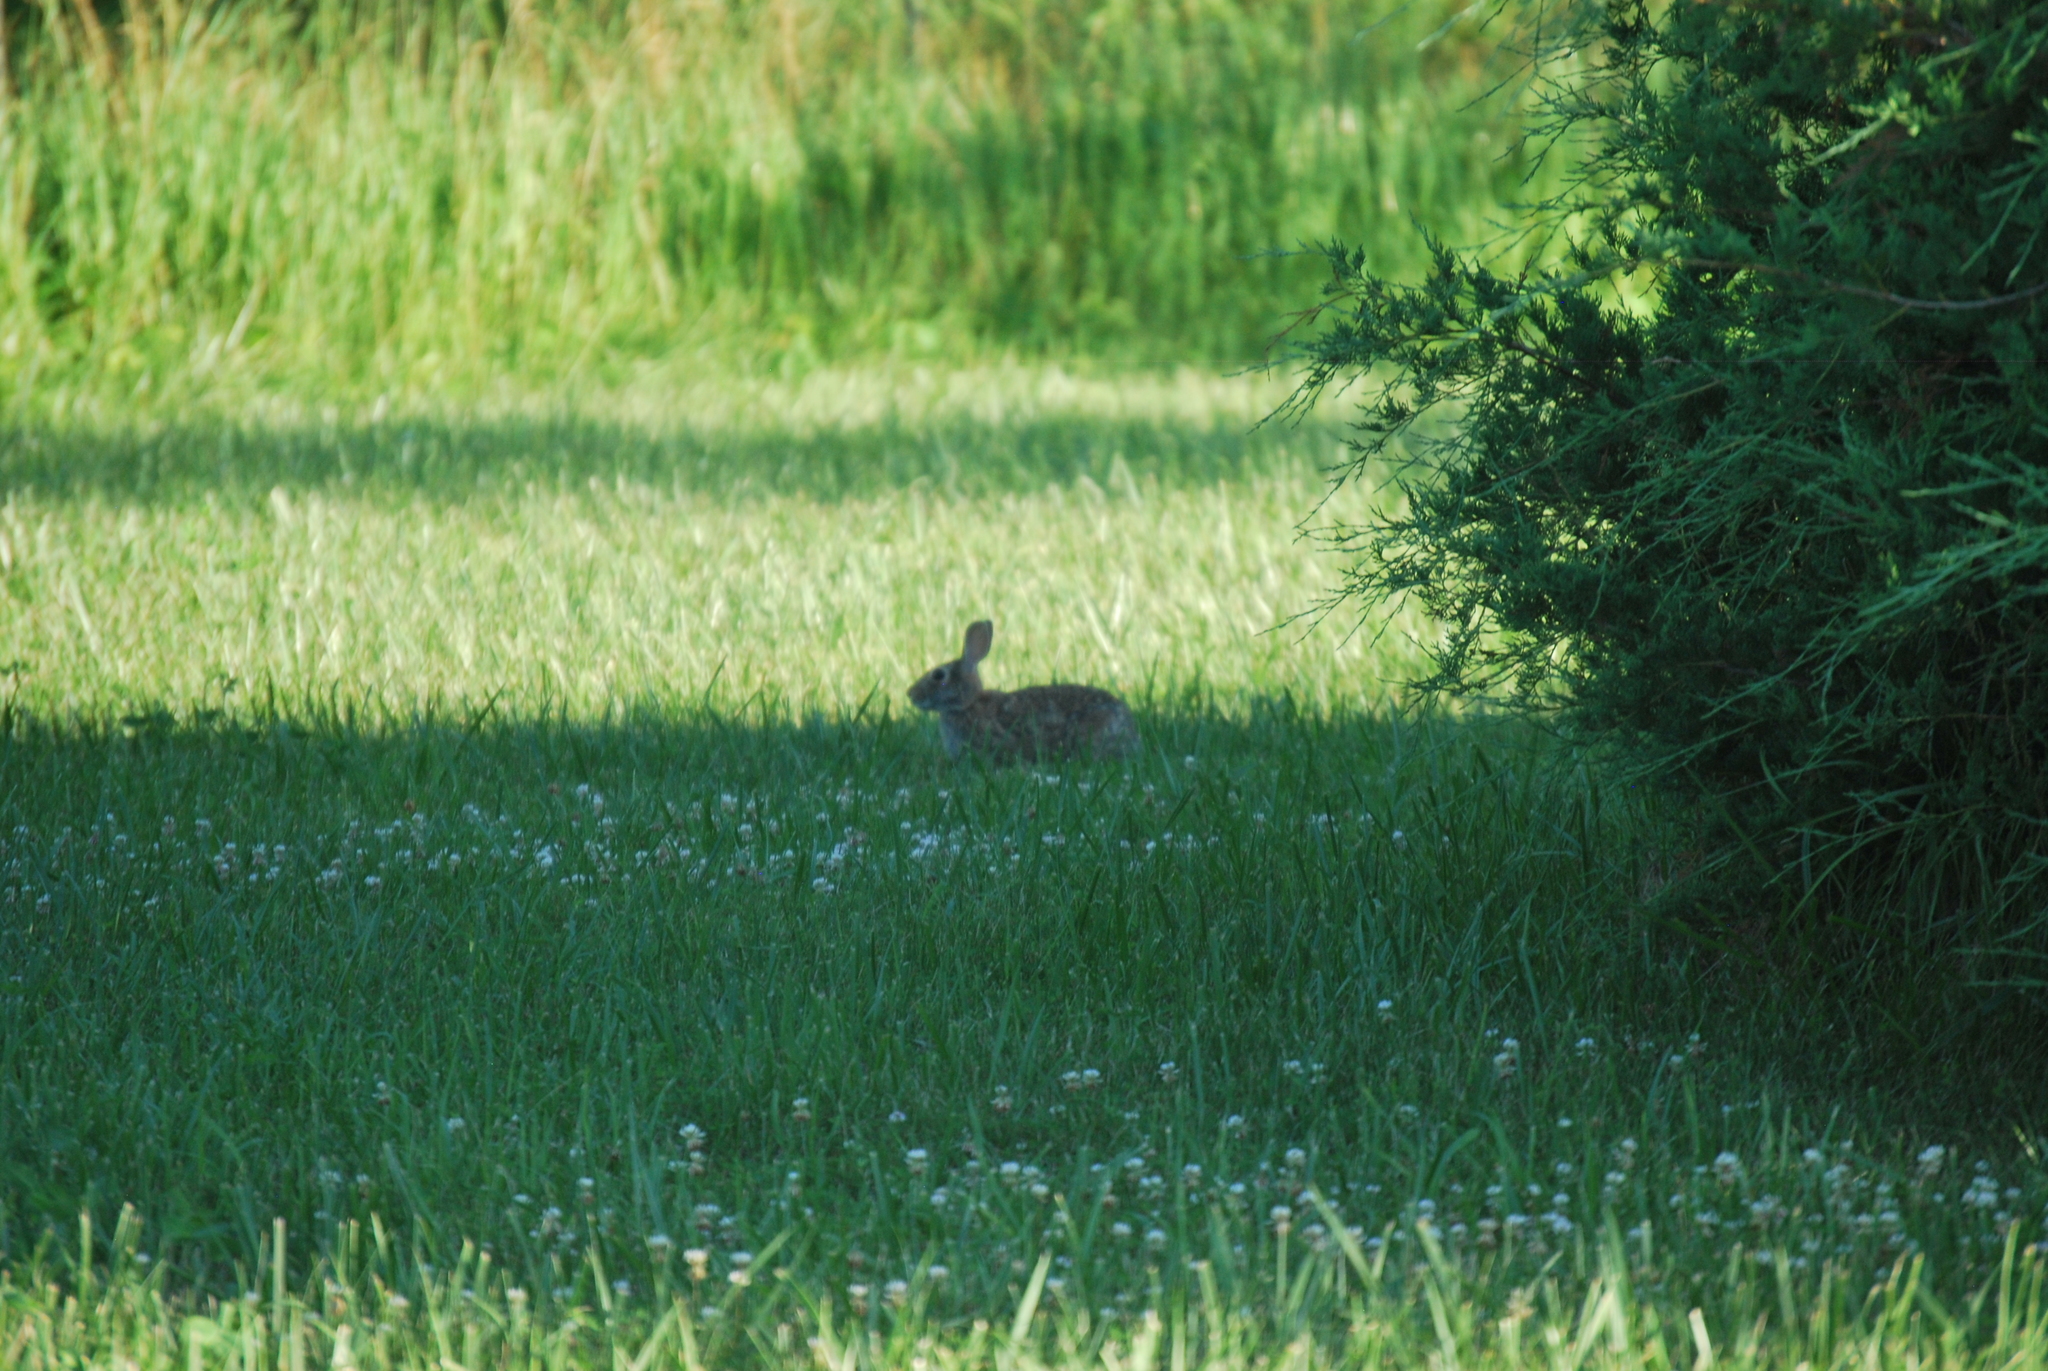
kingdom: Animalia
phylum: Chordata
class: Mammalia
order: Lagomorpha
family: Leporidae
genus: Sylvilagus
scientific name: Sylvilagus floridanus
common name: Eastern cottontail
